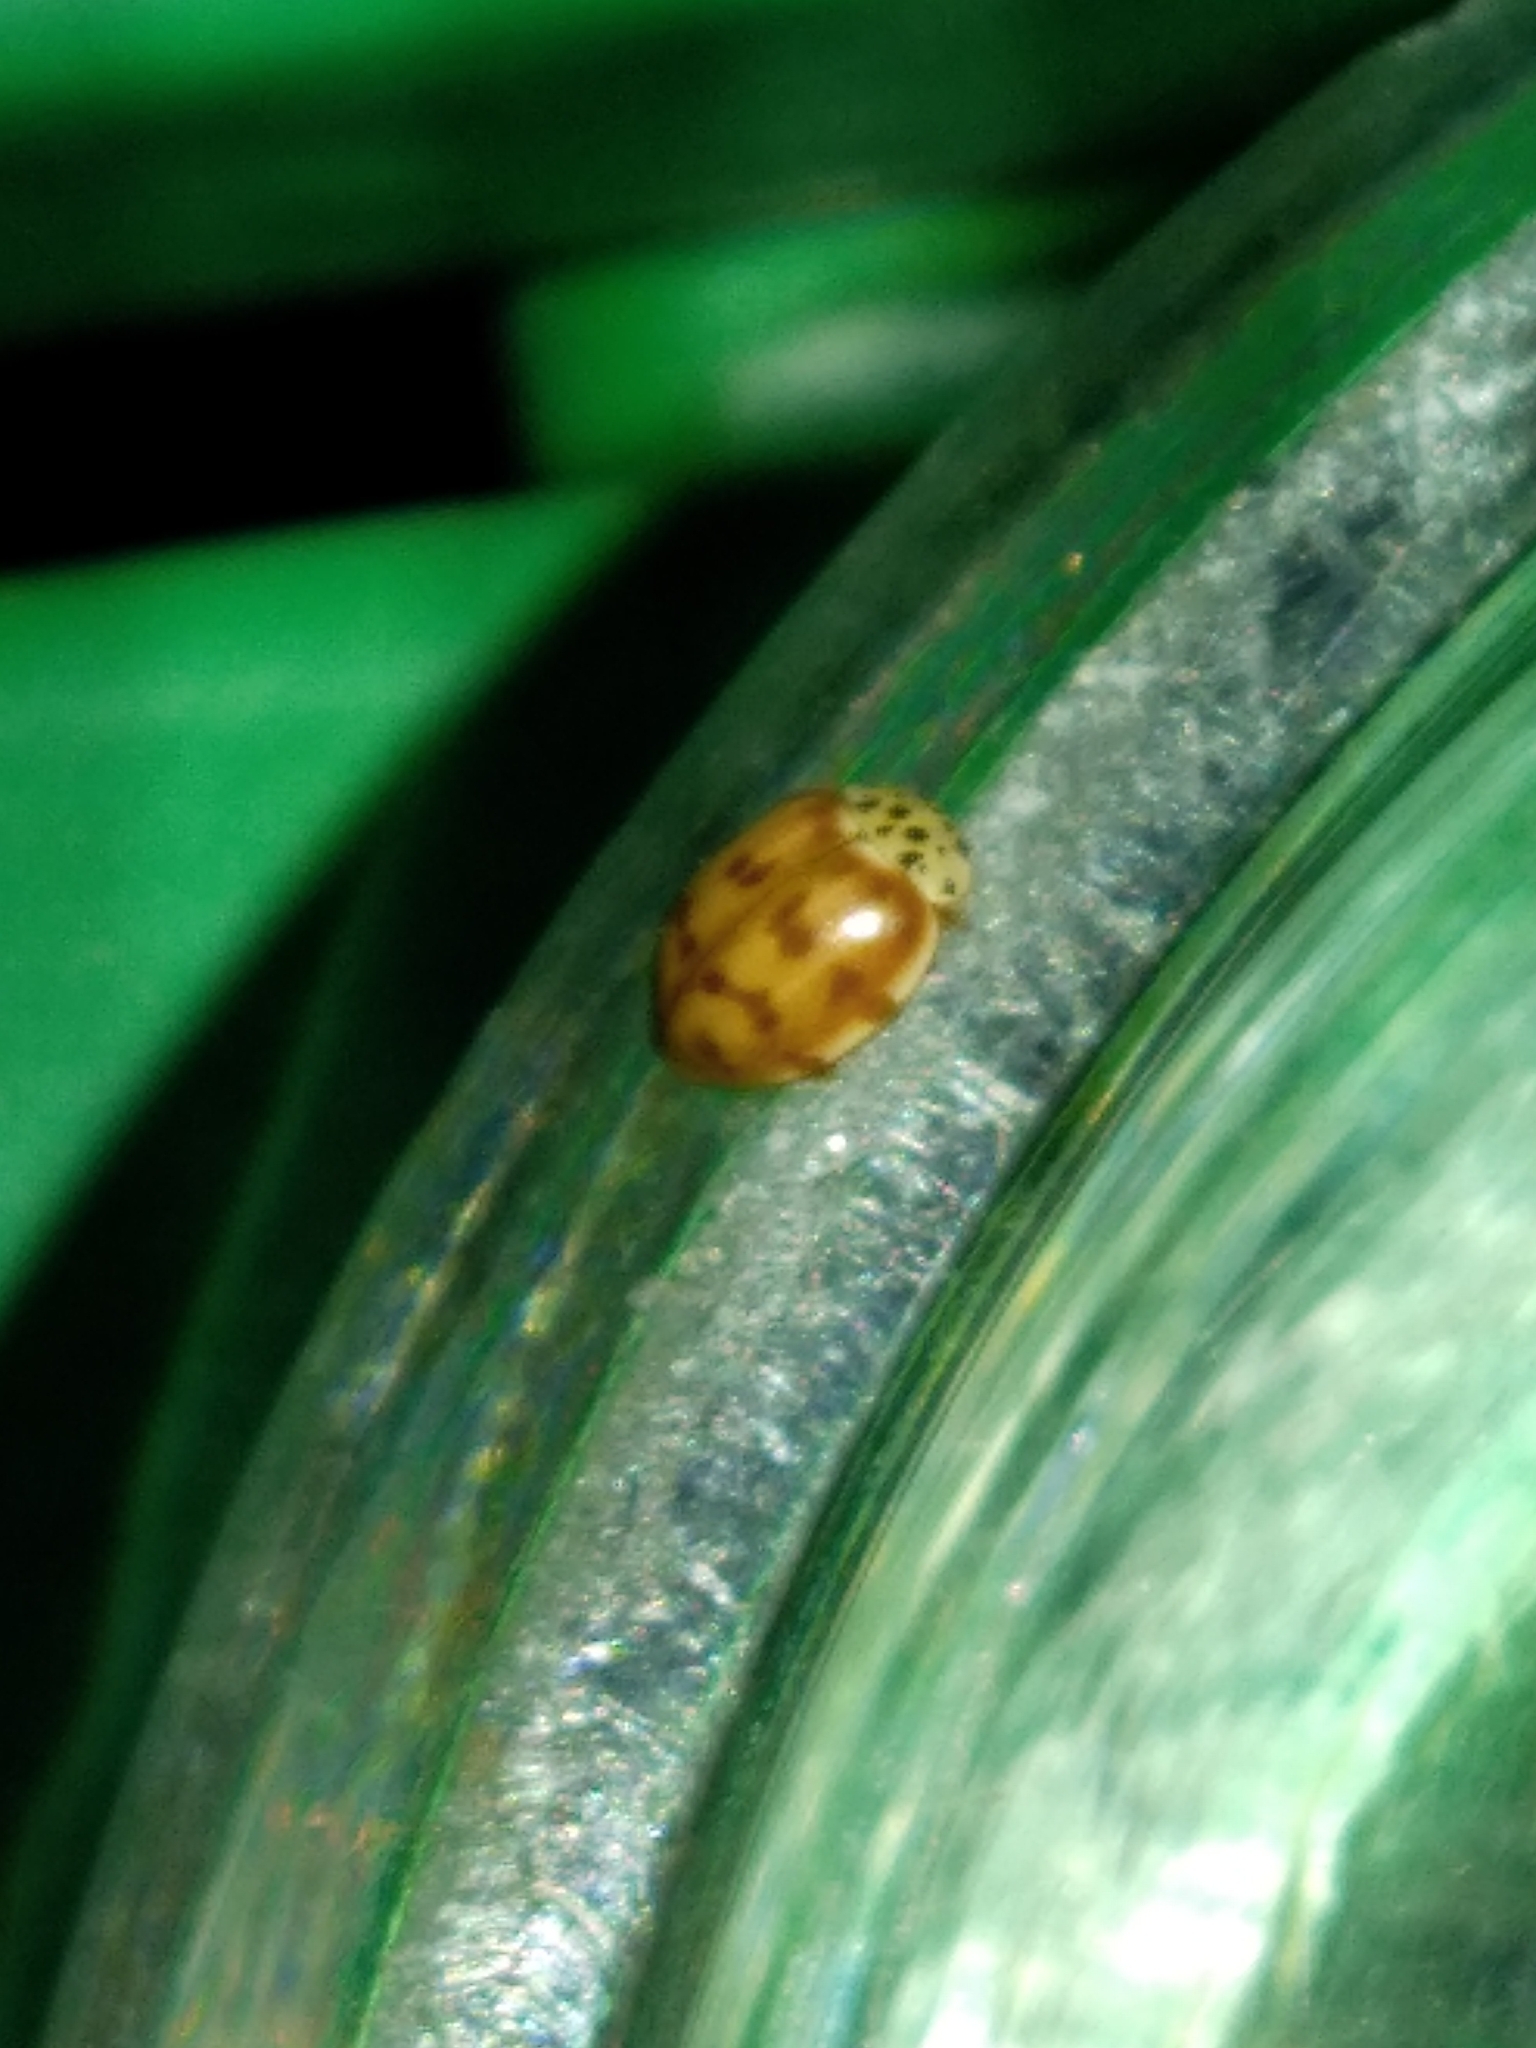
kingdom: Animalia
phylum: Arthropoda
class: Insecta
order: Coleoptera
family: Coccinellidae
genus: Harmonia
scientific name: Harmonia quadripunctata
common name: Cream-streaked ladybird
